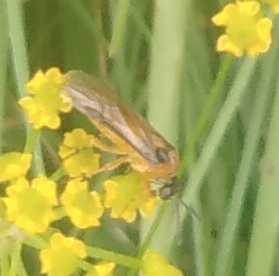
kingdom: Animalia
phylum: Arthropoda
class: Insecta
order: Hymenoptera
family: Tenthredinidae
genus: Athalia
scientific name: Athalia rosae
